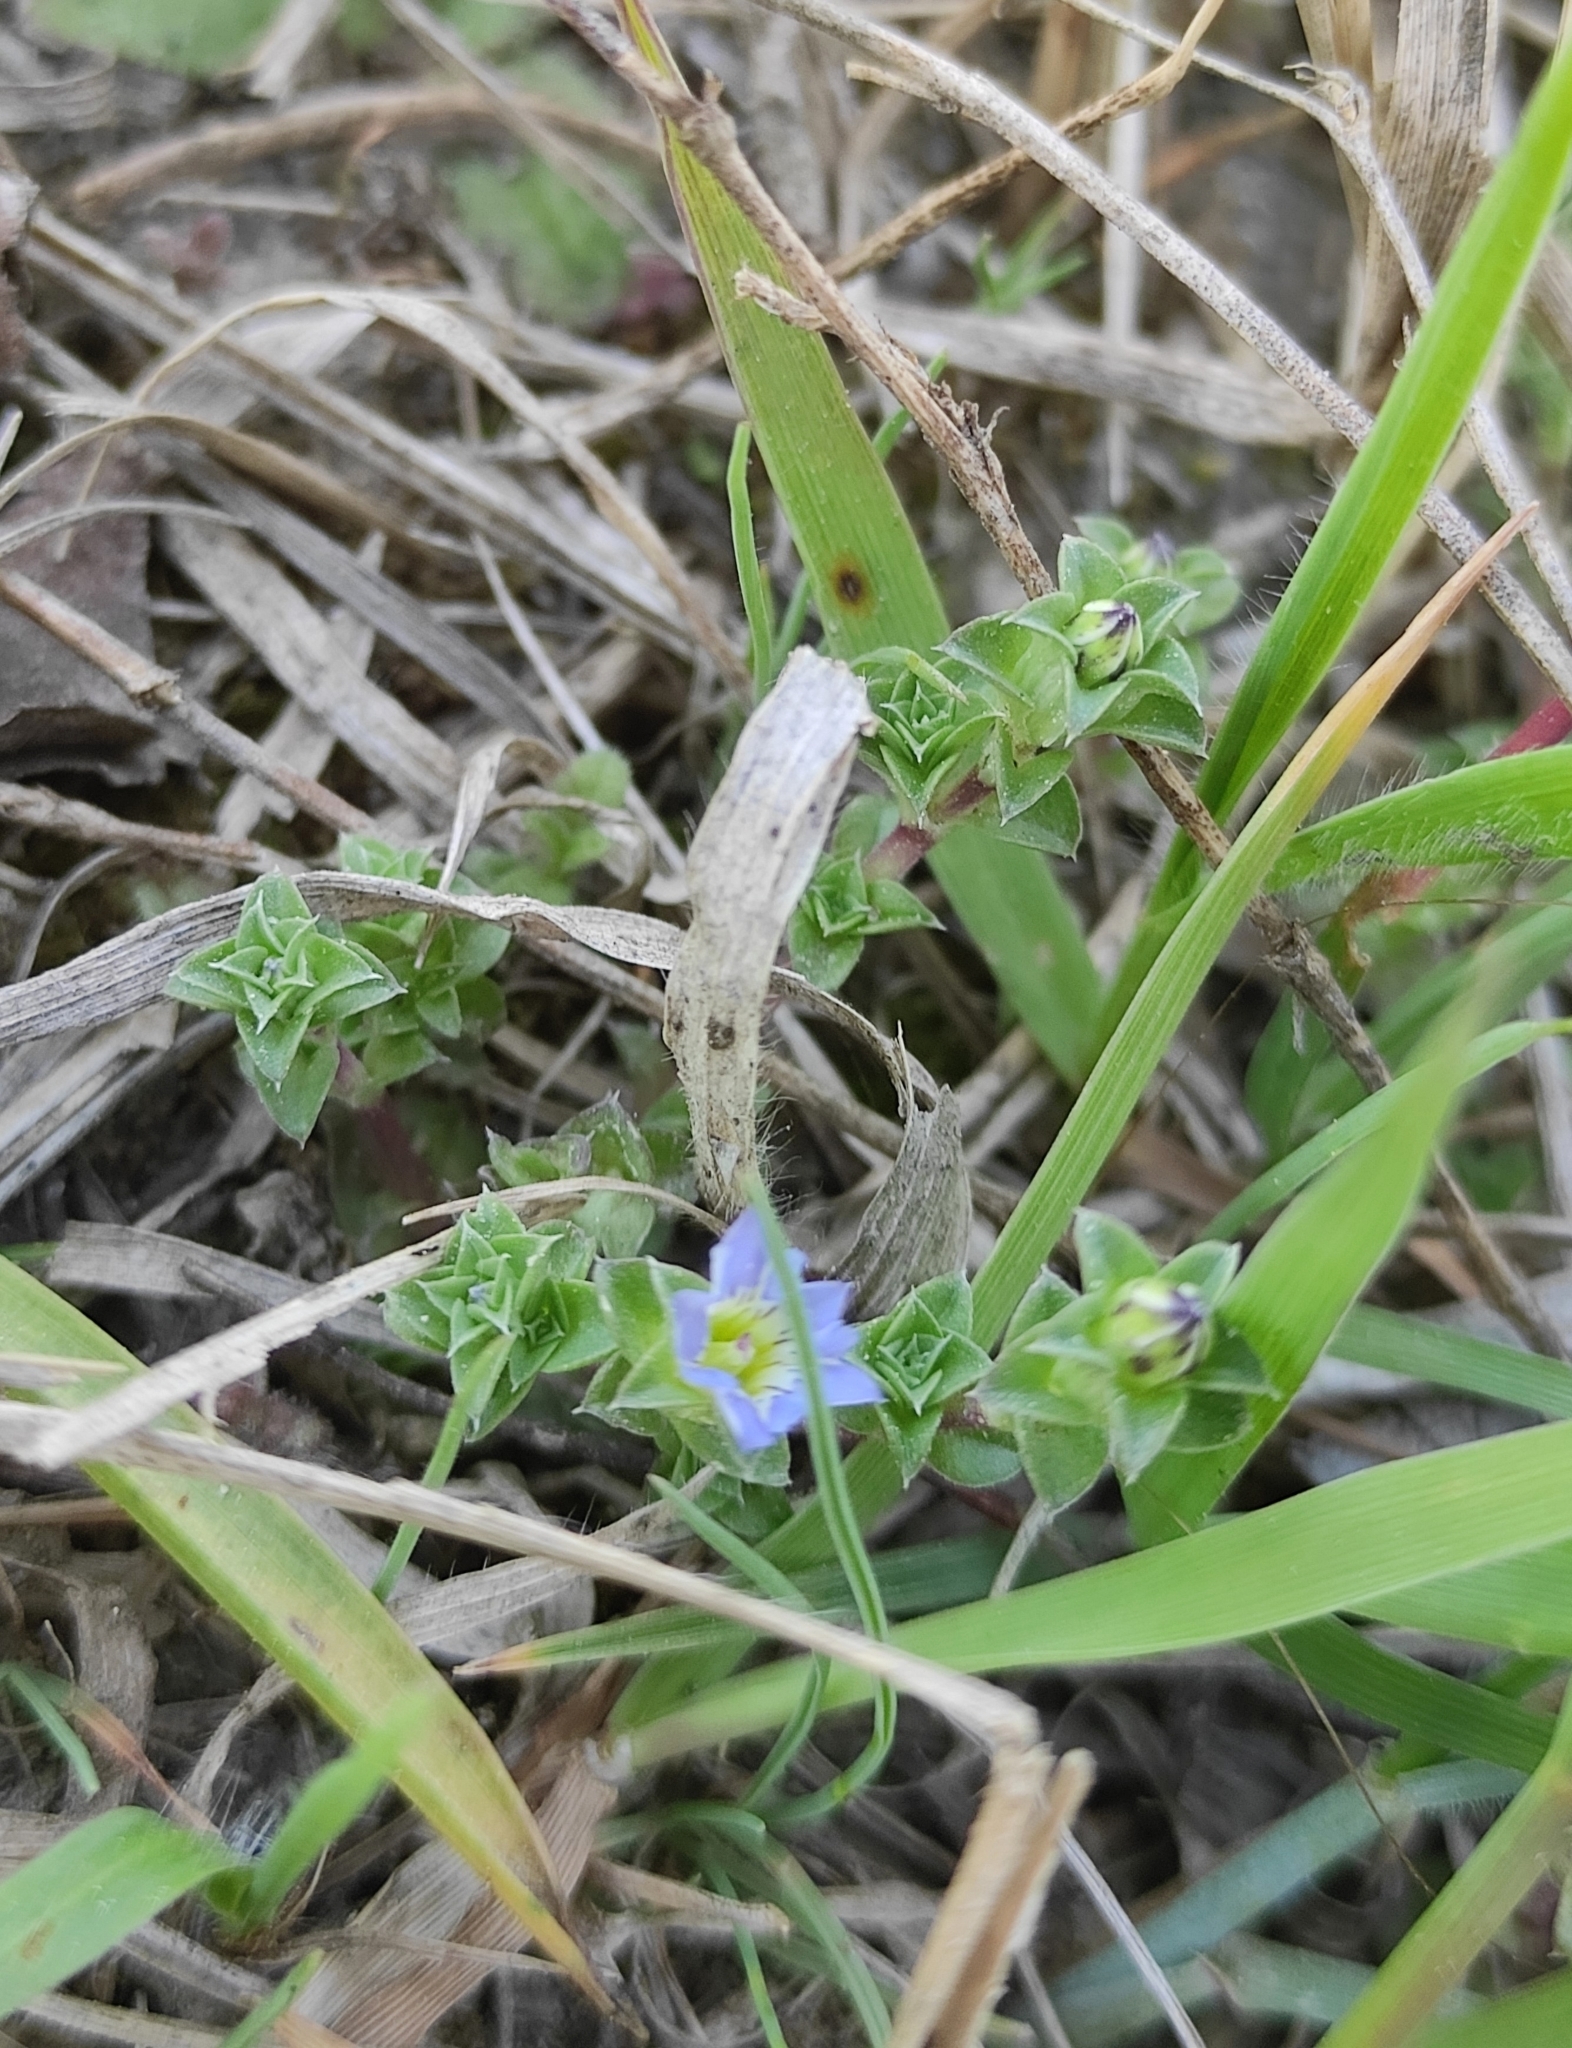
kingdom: Plantae
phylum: Tracheophyta
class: Magnoliopsida
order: Gentianales
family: Gentianaceae
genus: Gentiana
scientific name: Gentiana squarrosa
